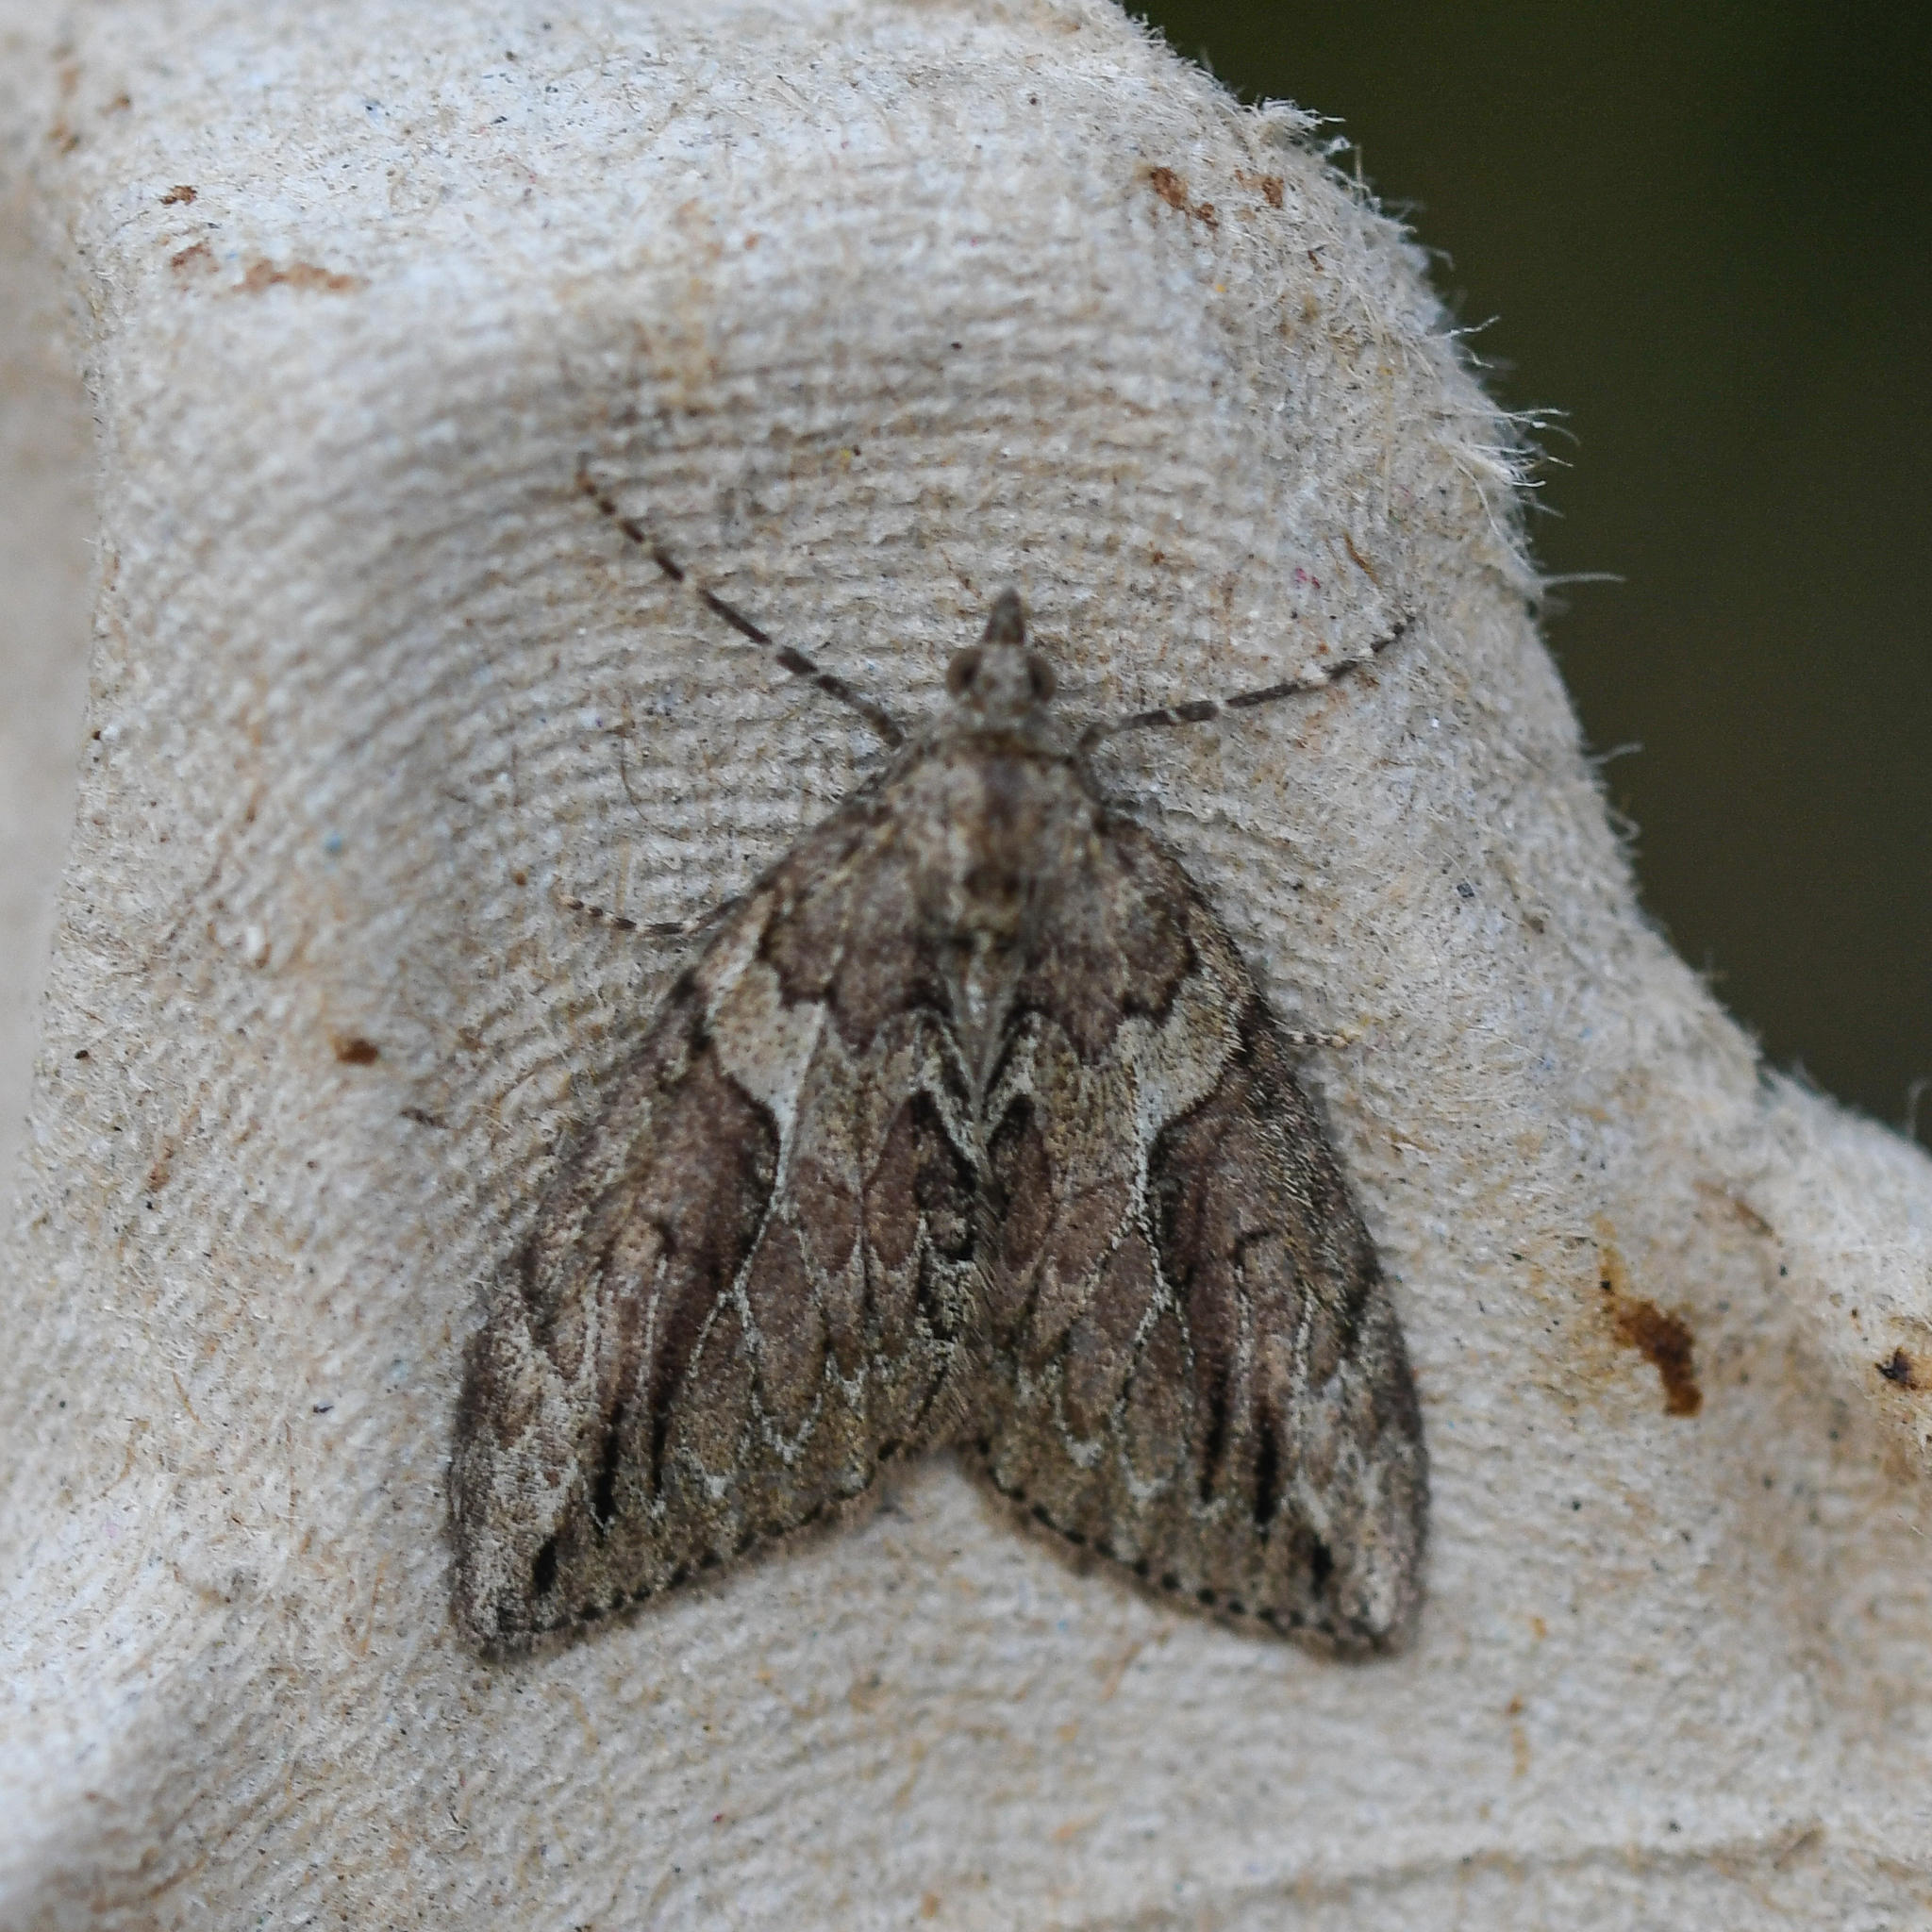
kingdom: Animalia
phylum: Arthropoda
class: Insecta
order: Lepidoptera
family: Geometridae
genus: Thera
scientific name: Thera cupressata
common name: Cypress carpet
